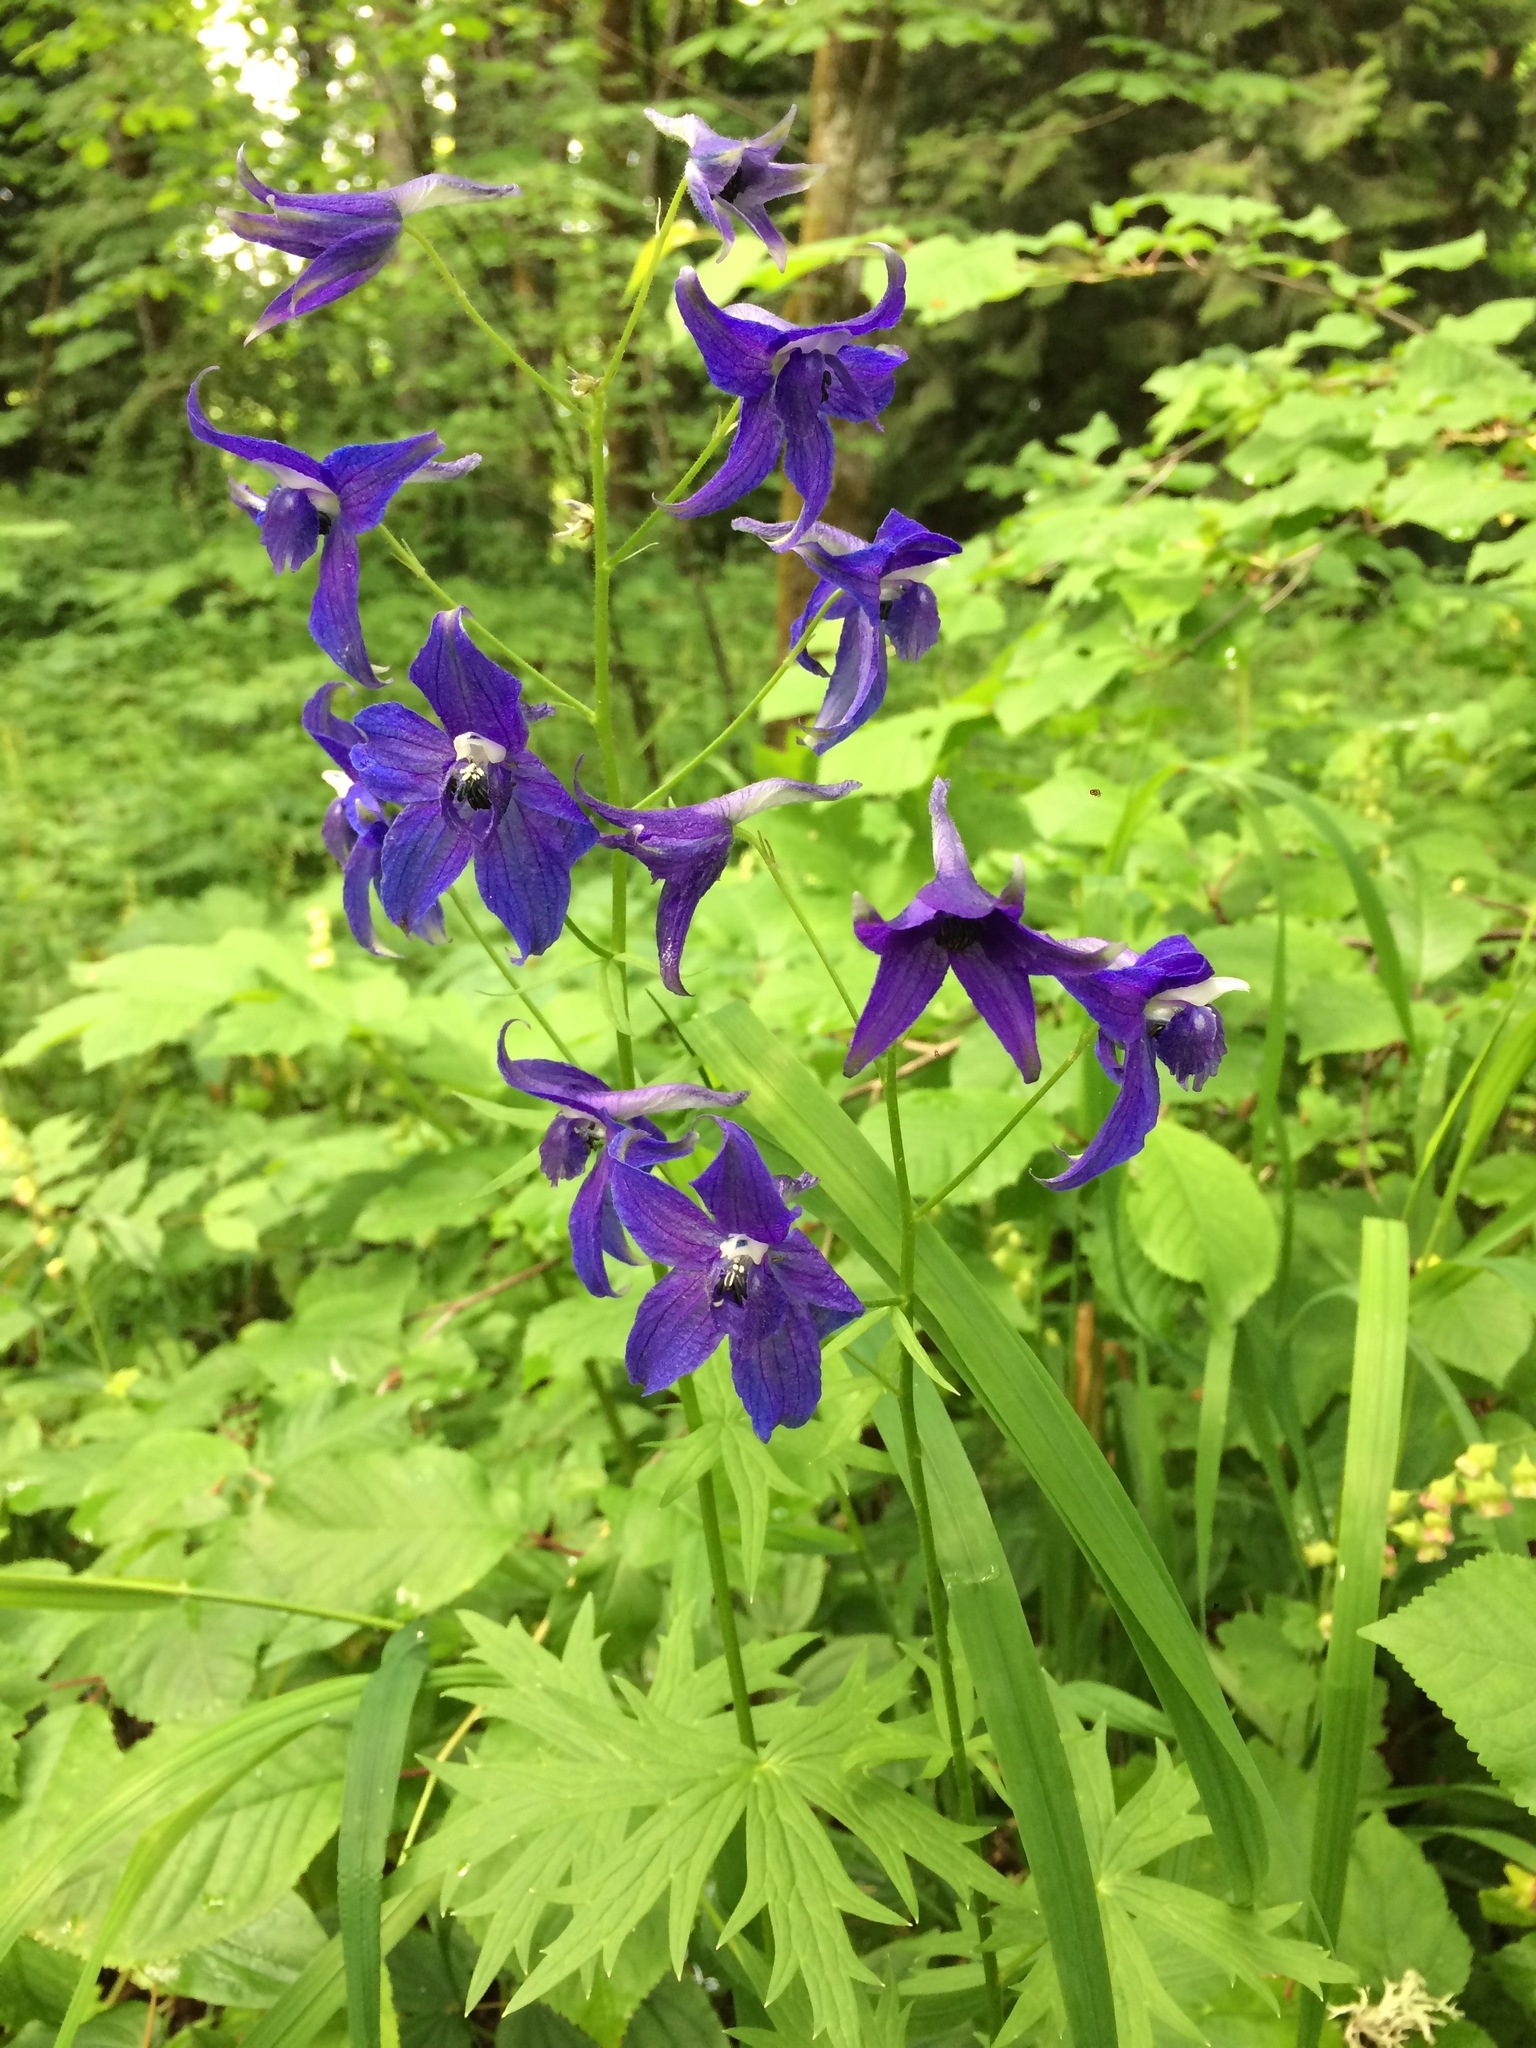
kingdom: Plantae
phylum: Tracheophyta
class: Magnoliopsida
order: Ranunculales
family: Ranunculaceae
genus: Delphinium
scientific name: Delphinium trolliifolium
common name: Cow-poison
